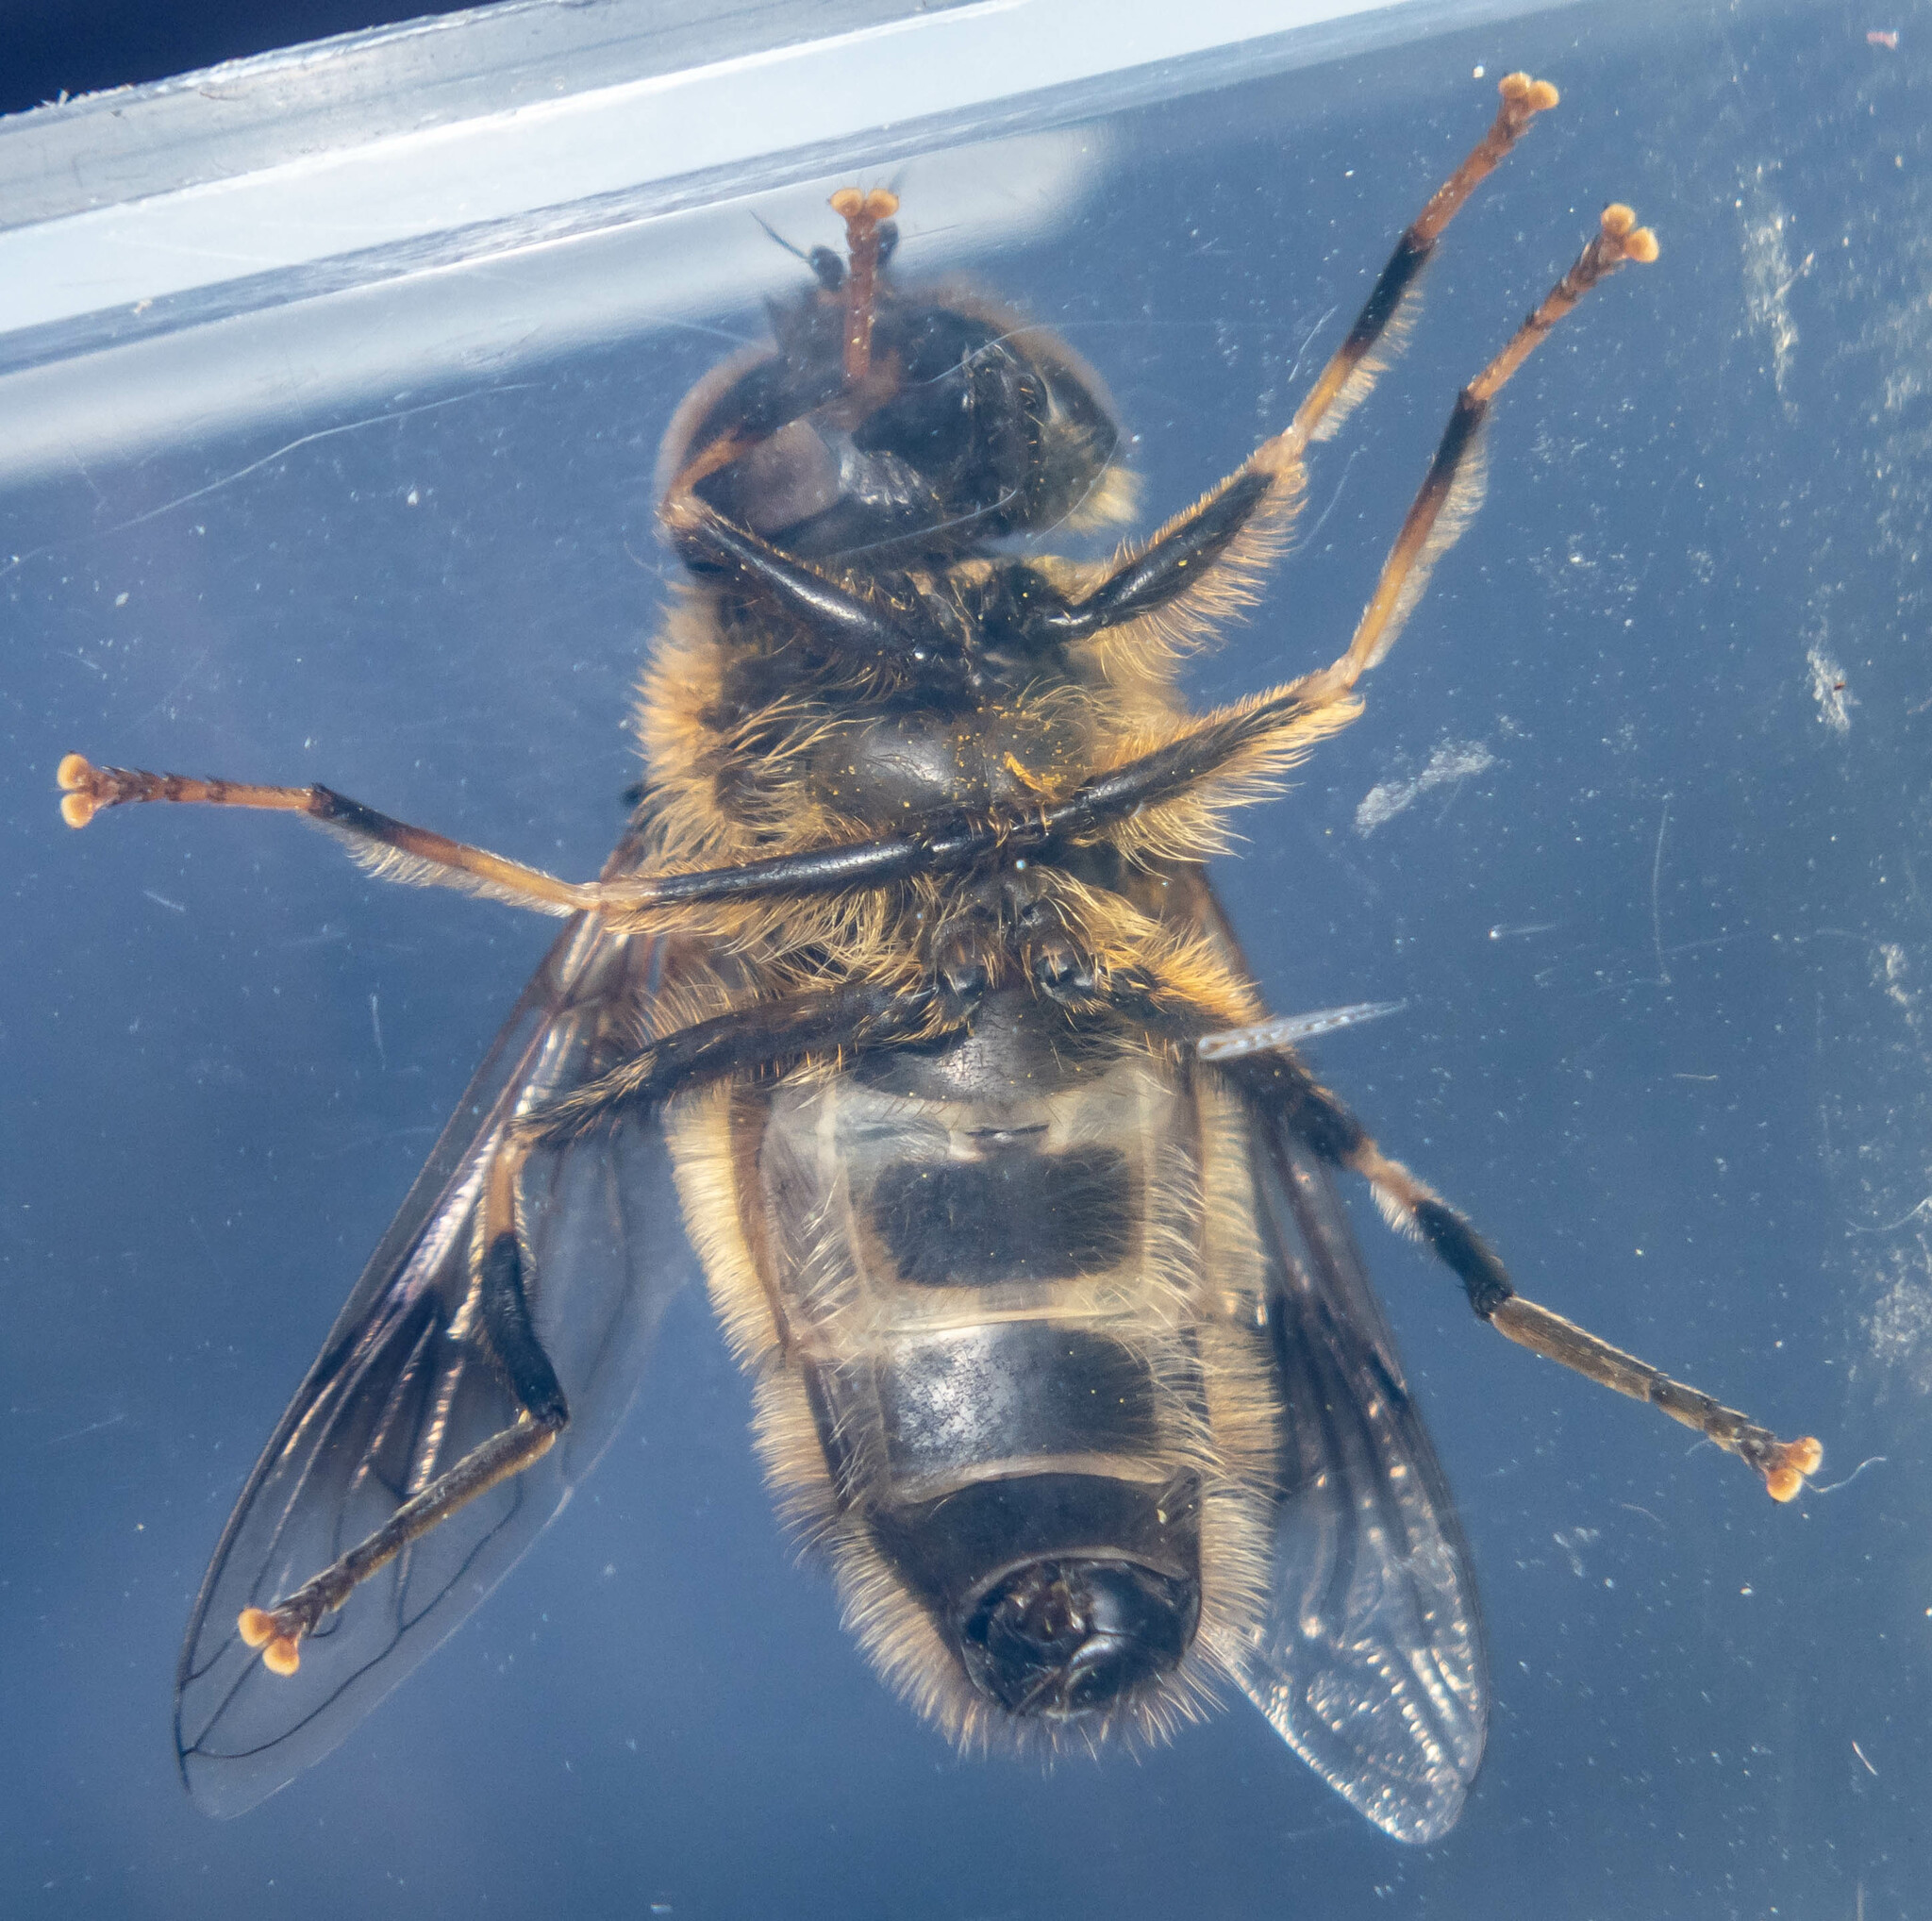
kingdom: Animalia
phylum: Arthropoda
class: Insecta
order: Diptera
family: Syrphidae
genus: Eristalis
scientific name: Eristalis pertinax
